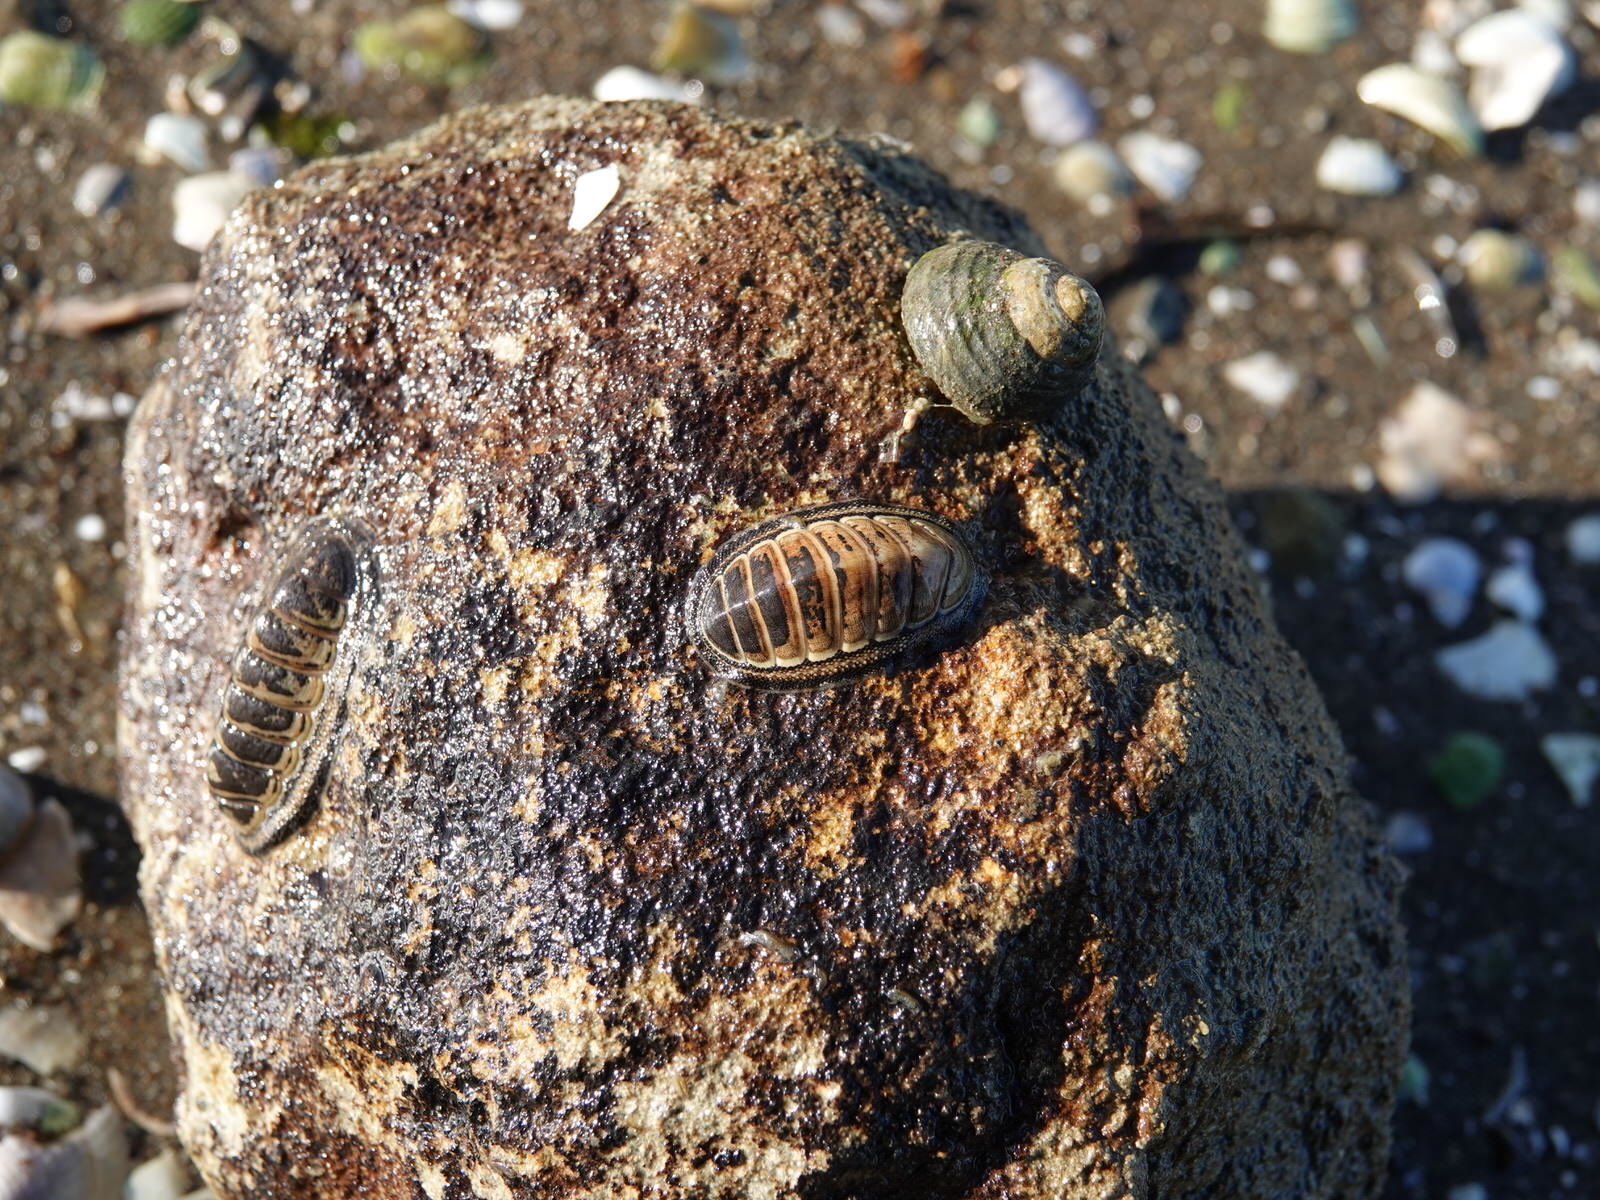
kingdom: Animalia
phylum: Mollusca
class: Polyplacophora
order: Chitonida
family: Chitonidae
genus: Chiton
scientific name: Chiton glaucus
